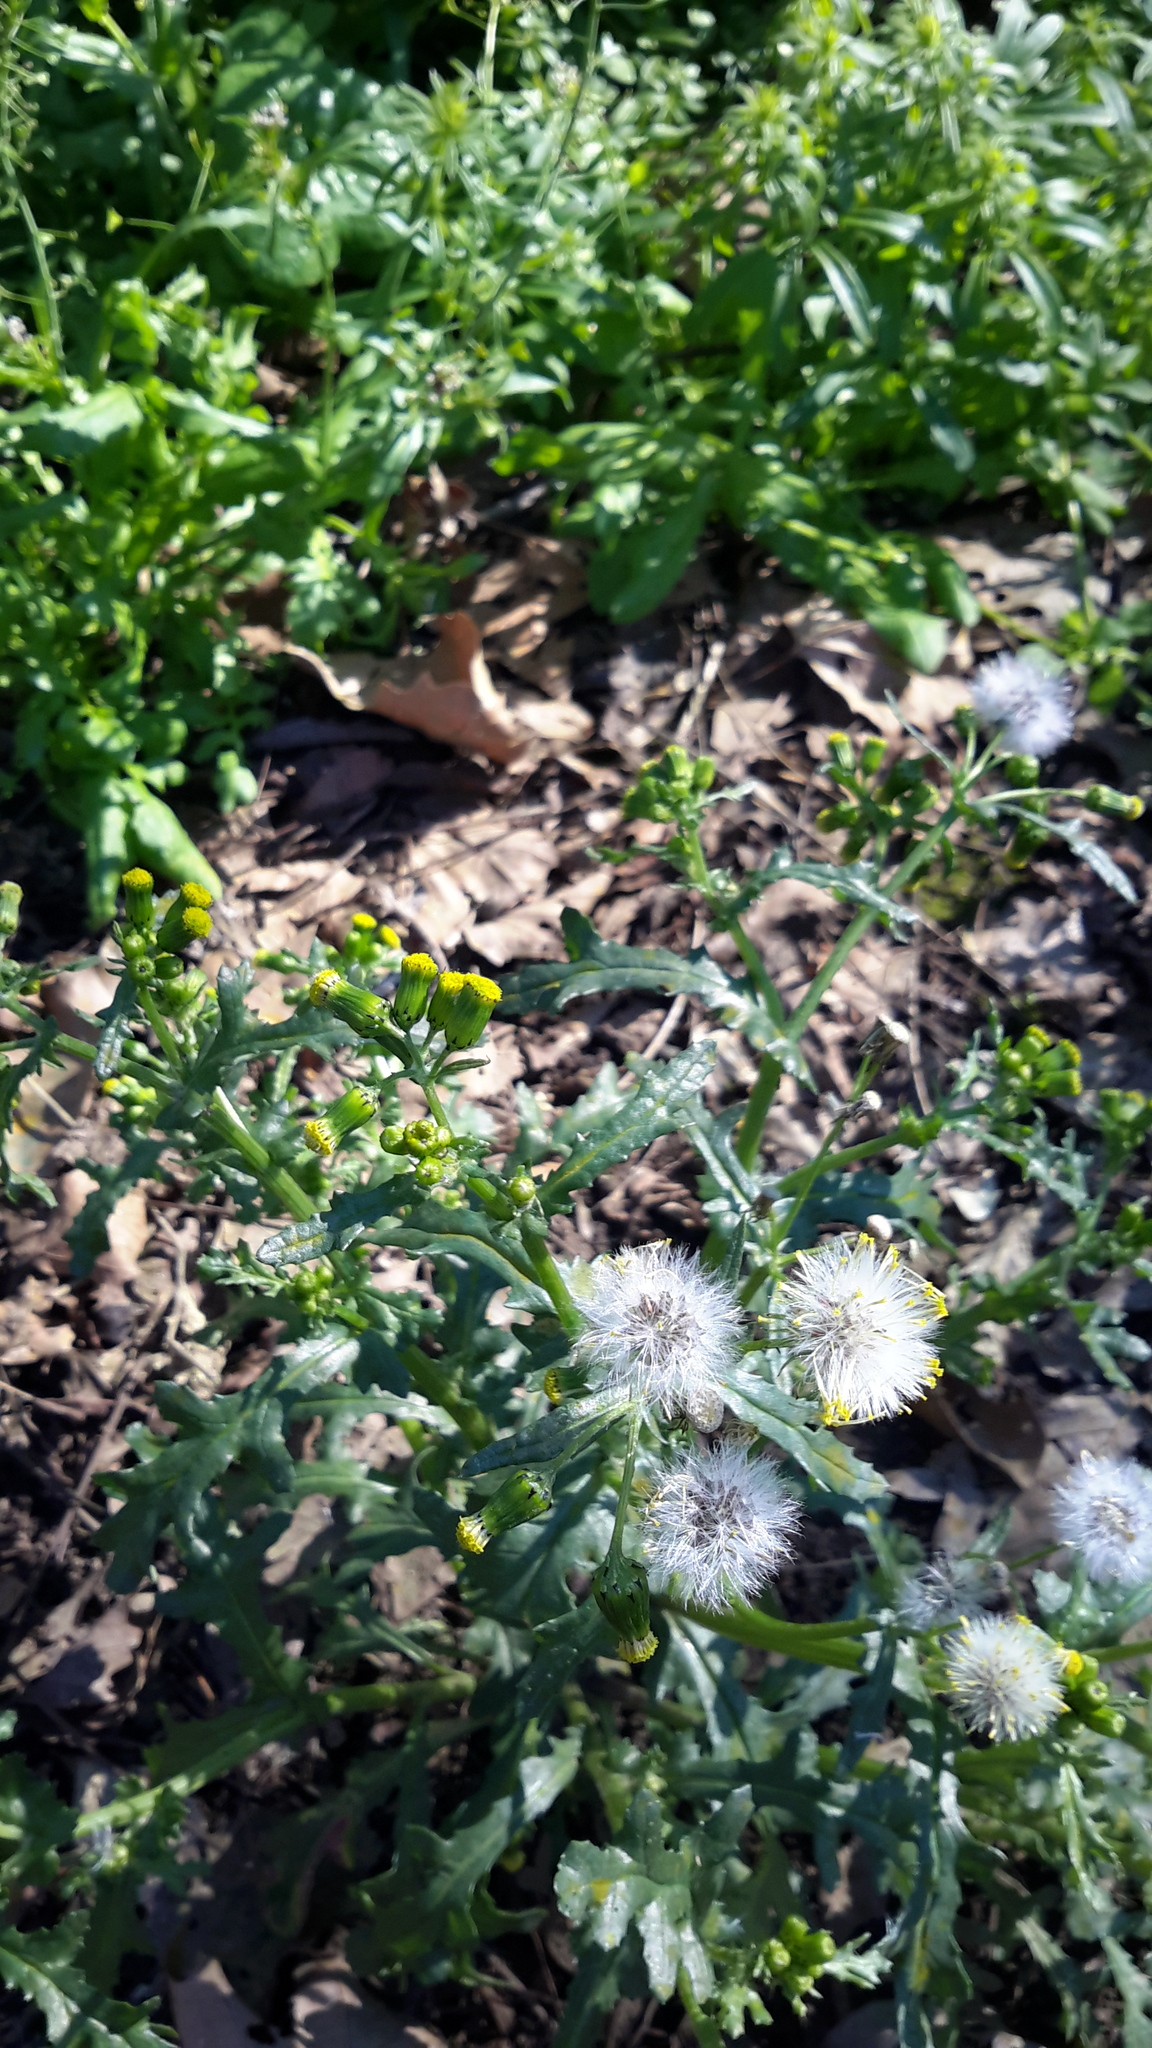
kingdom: Plantae
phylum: Tracheophyta
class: Magnoliopsida
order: Asterales
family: Asteraceae
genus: Senecio
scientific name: Senecio vulgaris
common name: Old-man-in-the-spring
